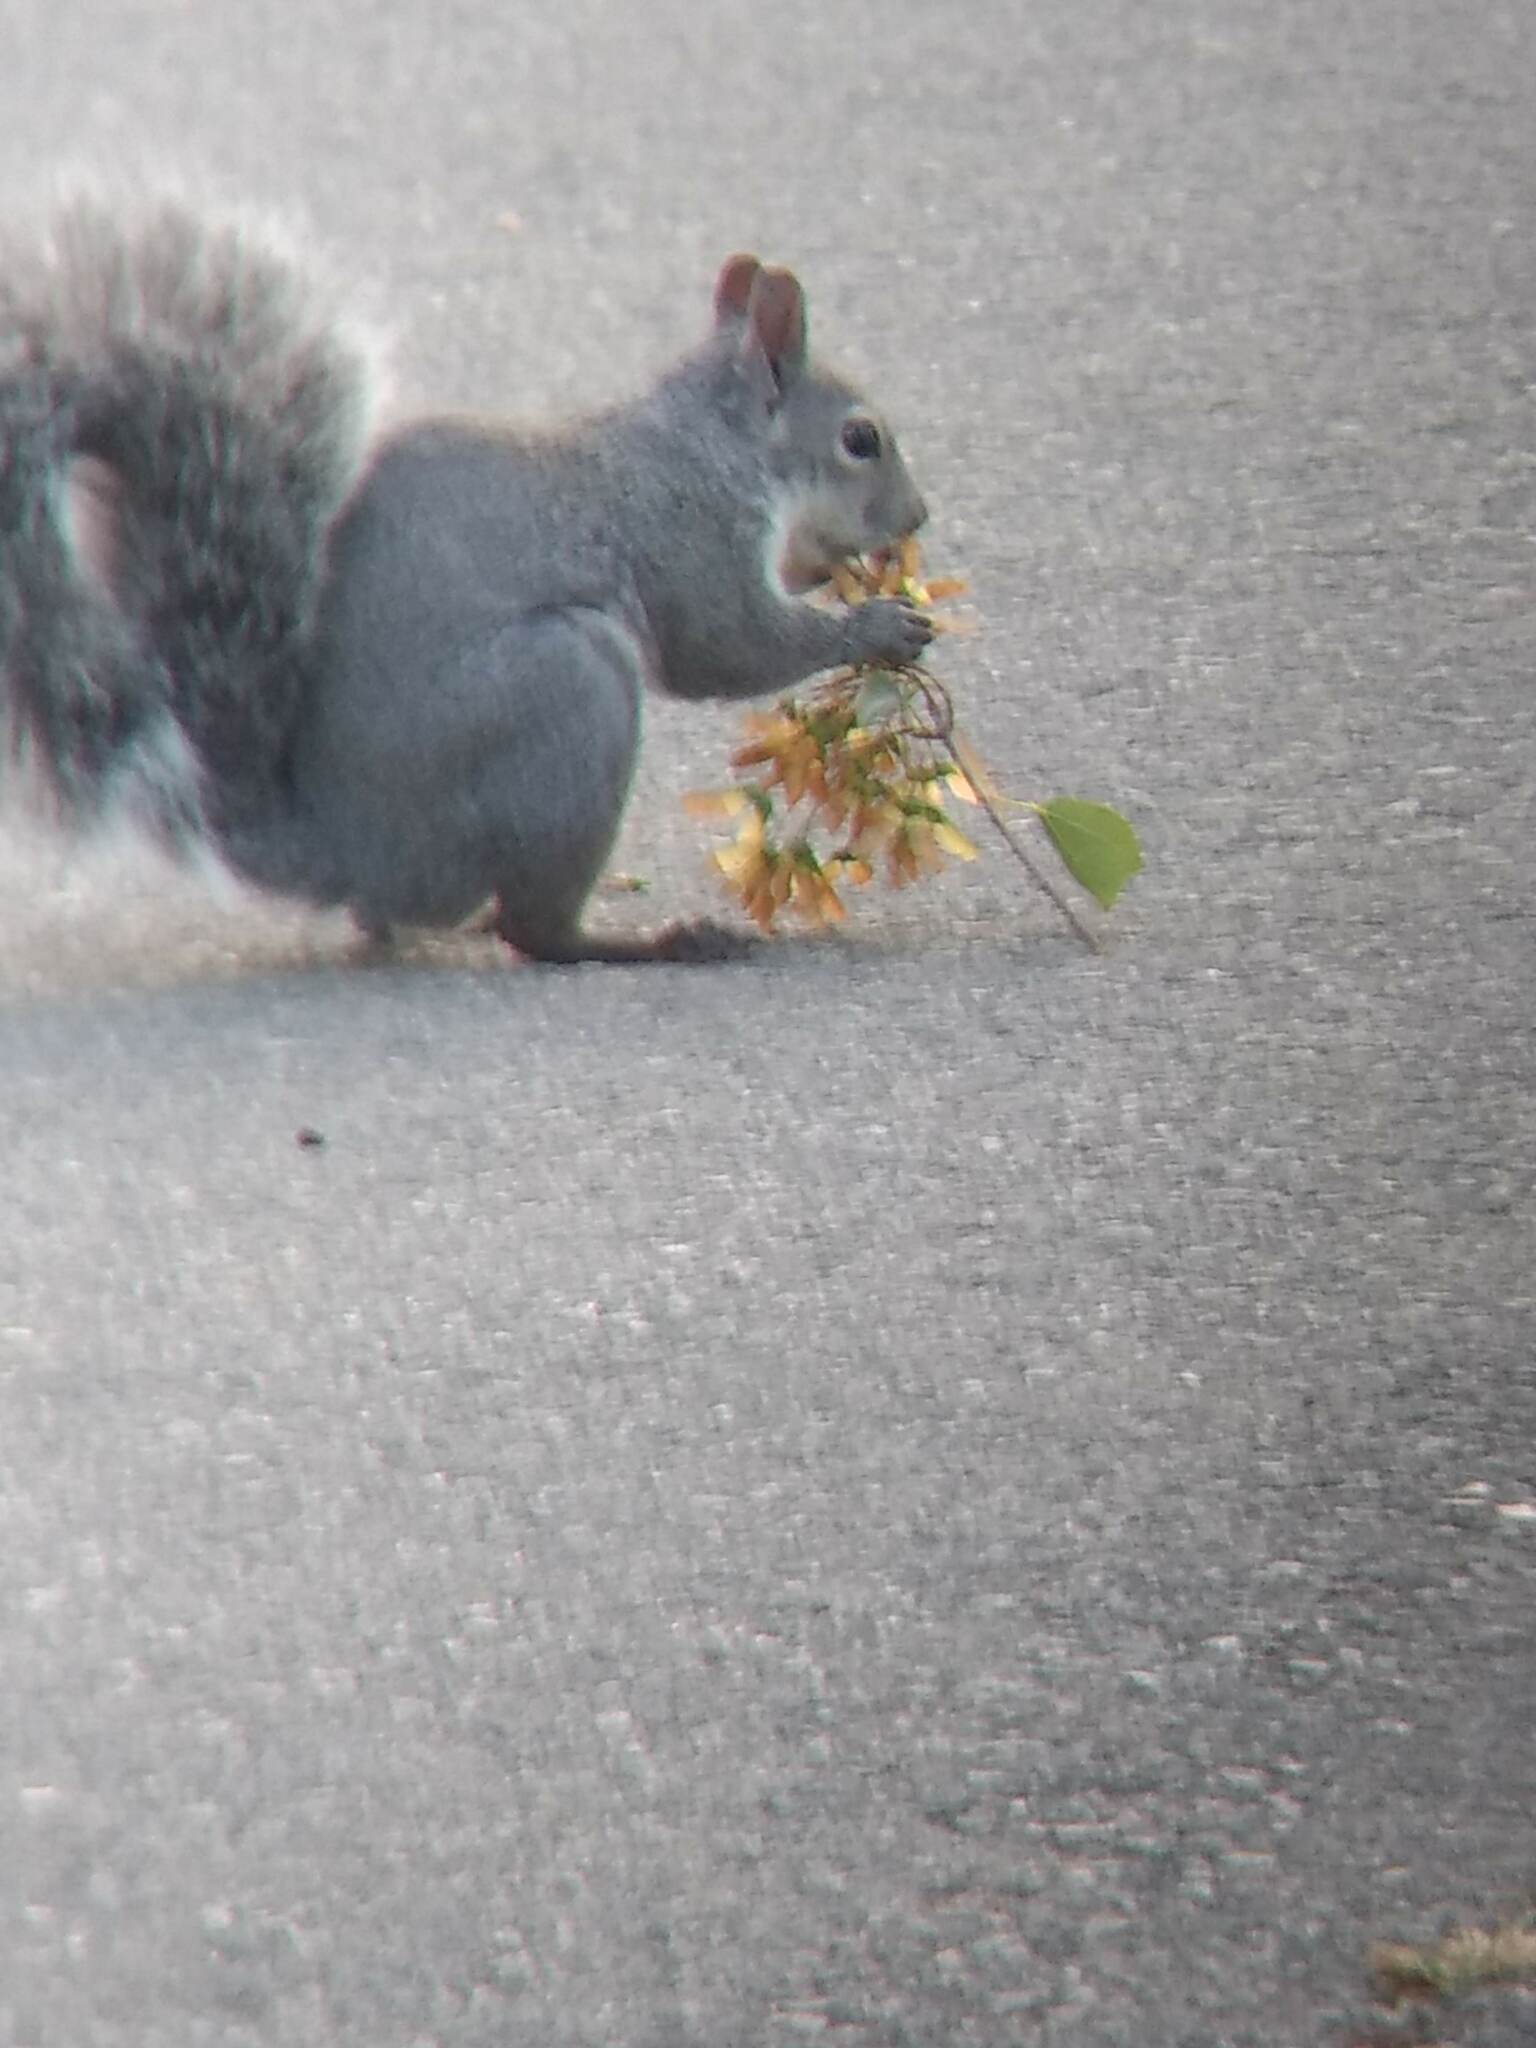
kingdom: Animalia
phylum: Chordata
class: Mammalia
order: Rodentia
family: Sciuridae
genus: Sciurus
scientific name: Sciurus griseus
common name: Western gray squirrel
